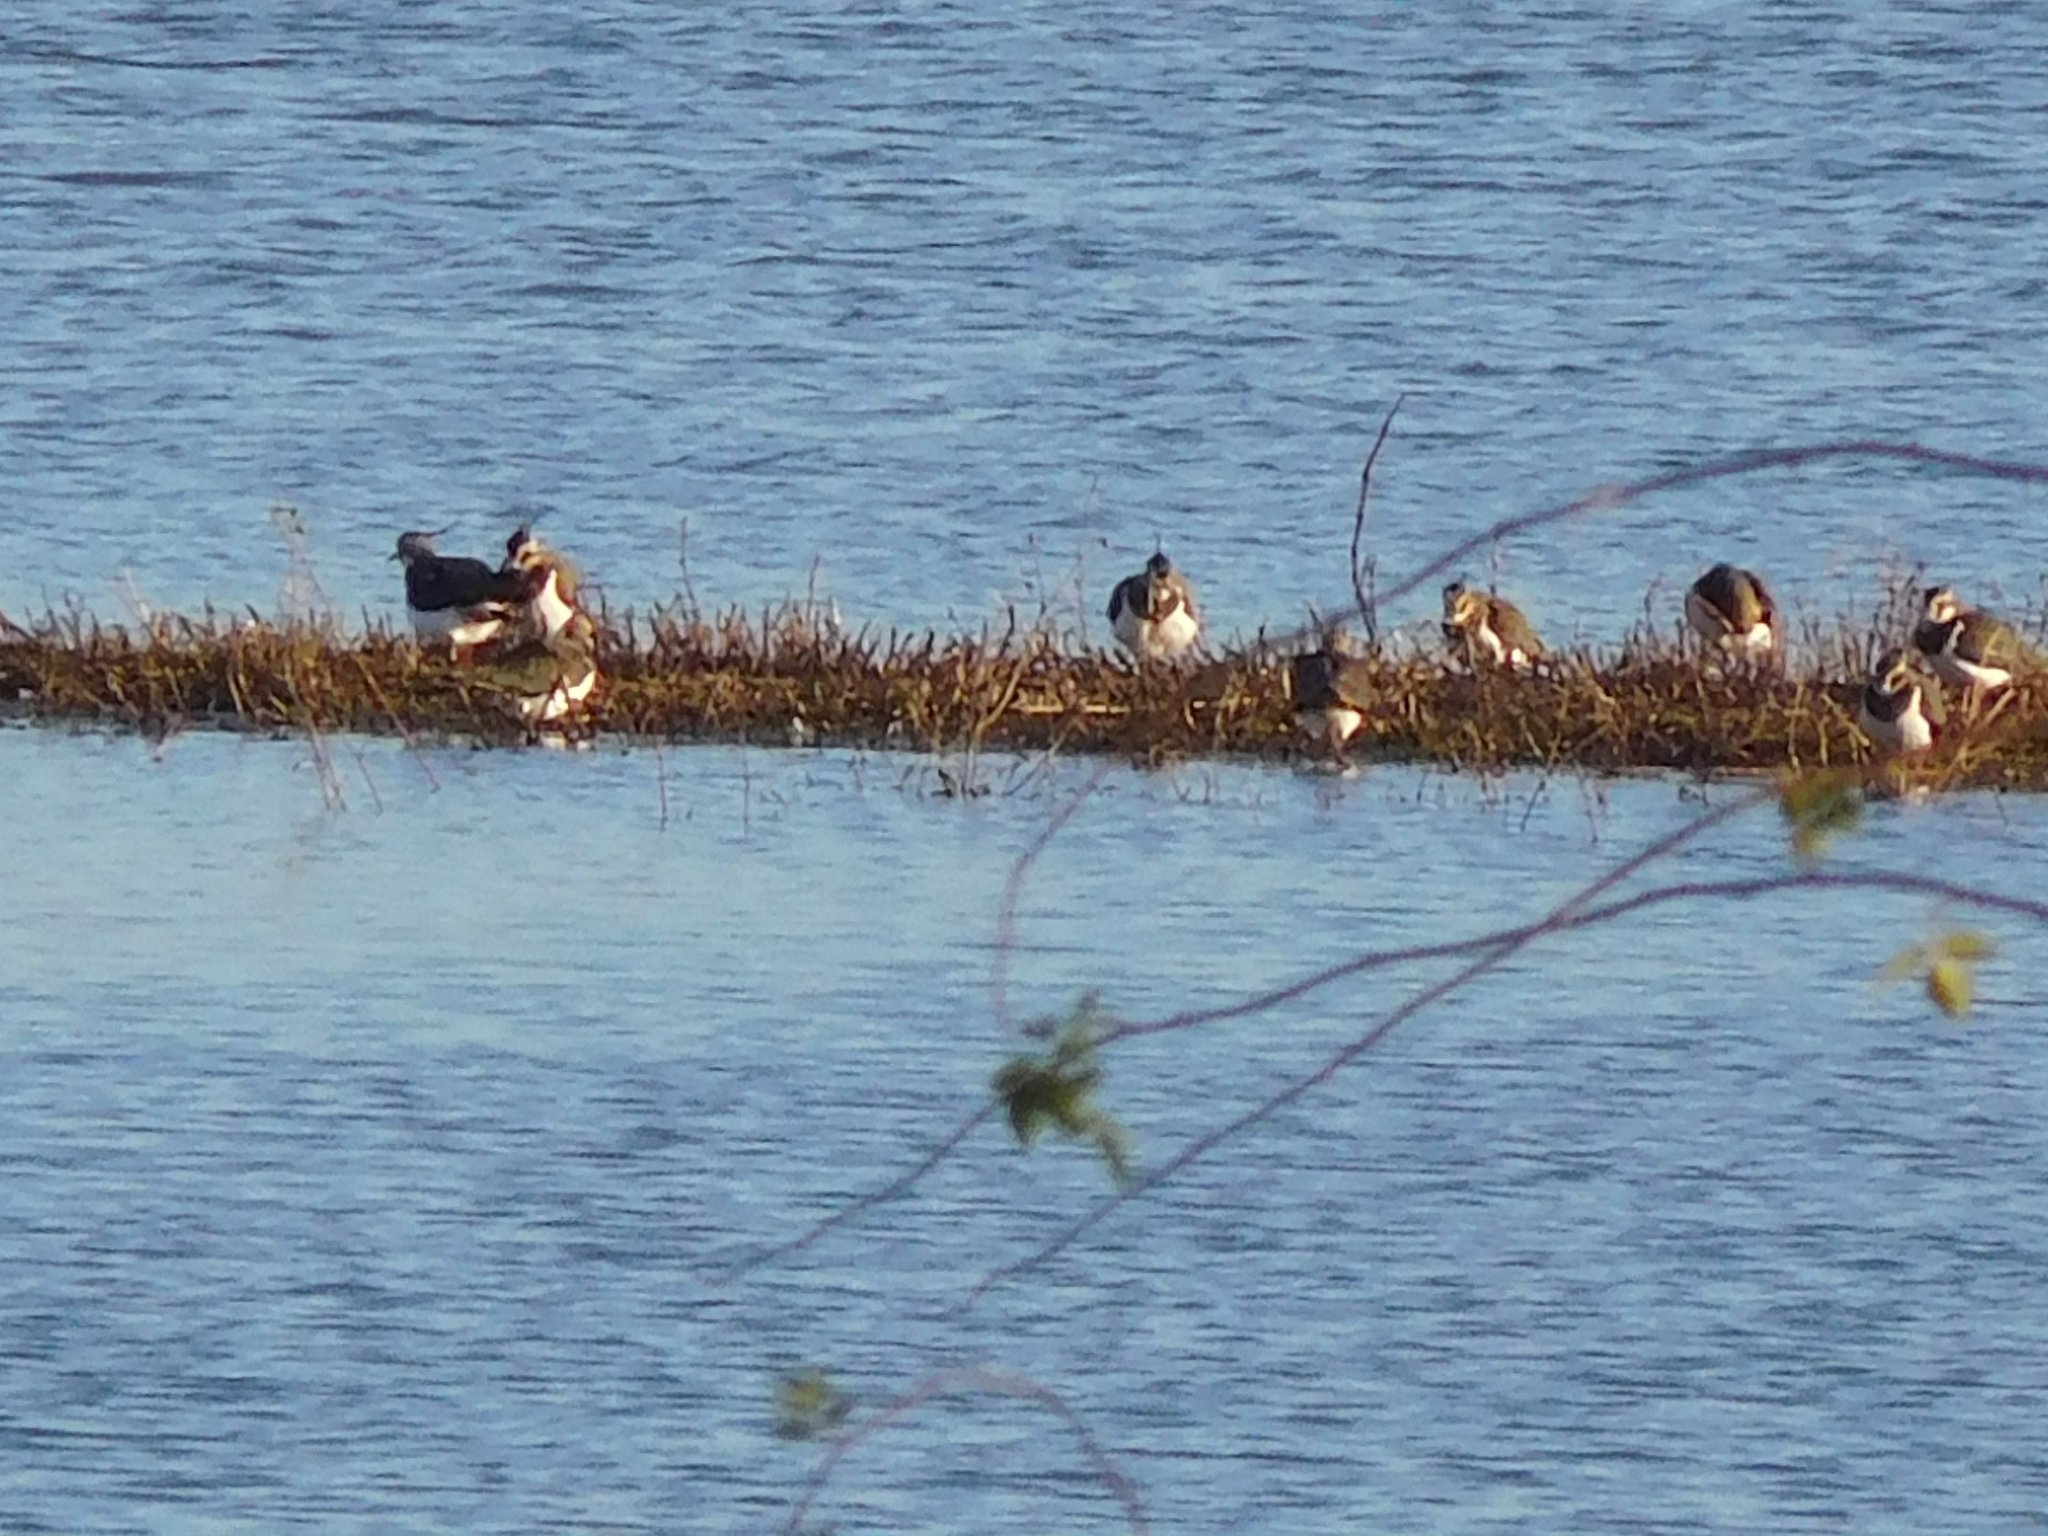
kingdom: Animalia
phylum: Chordata
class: Aves
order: Charadriiformes
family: Charadriidae
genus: Vanellus
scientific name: Vanellus vanellus
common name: Northern lapwing
